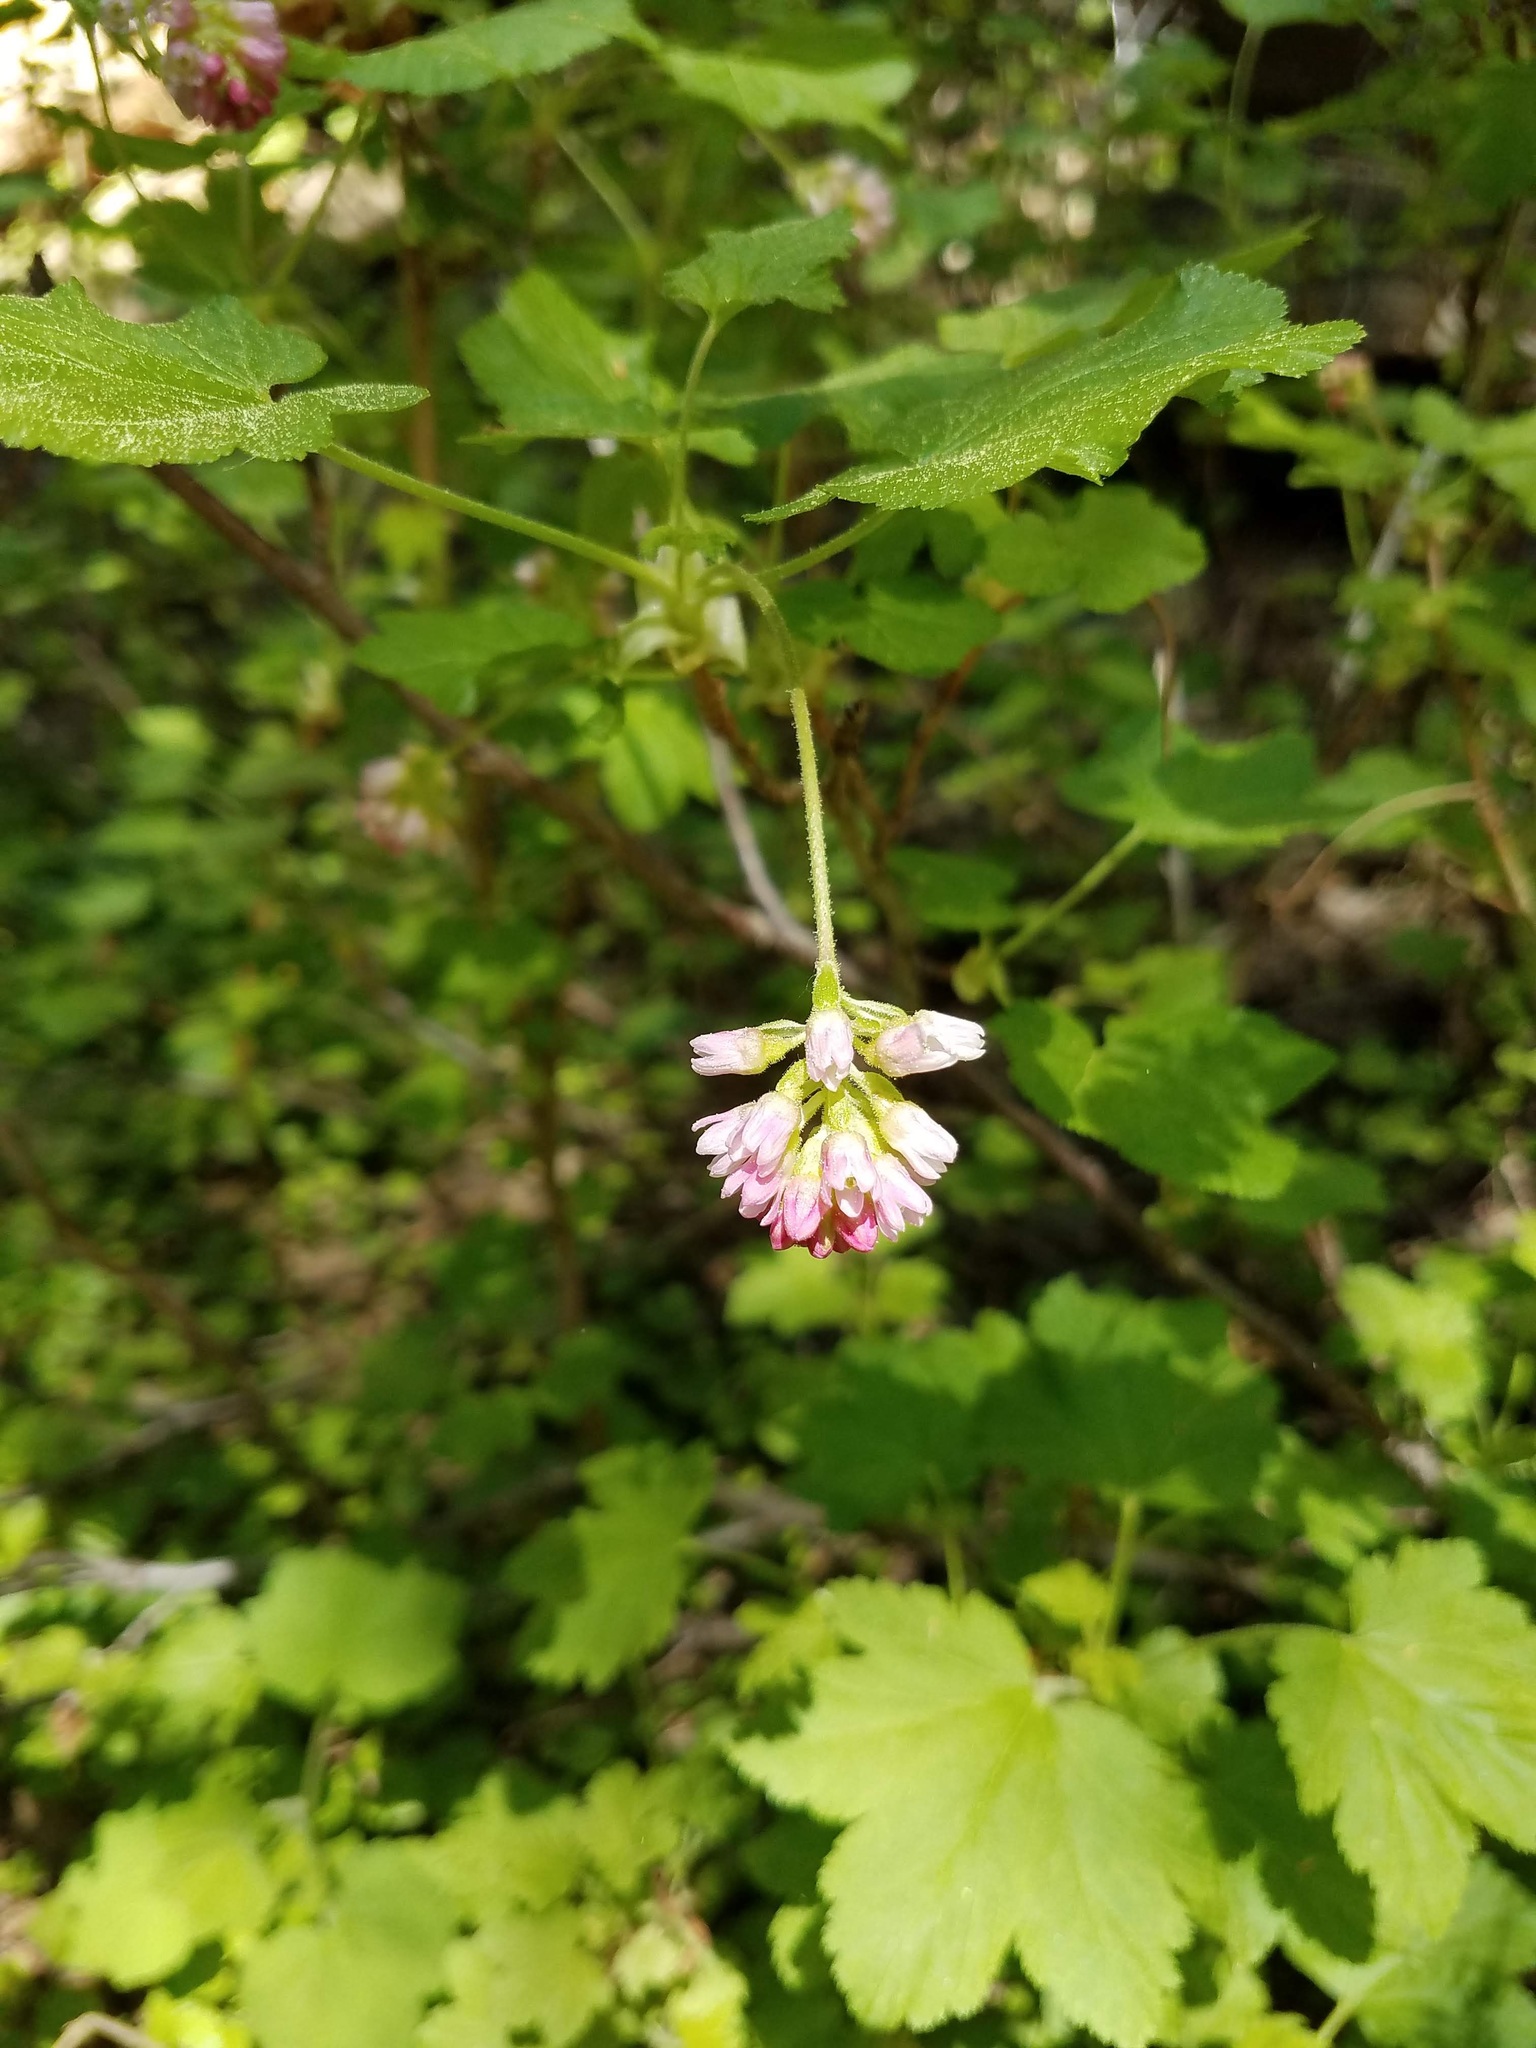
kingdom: Plantae
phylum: Tracheophyta
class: Magnoliopsida
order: Saxifragales
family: Grossulariaceae
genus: Ribes
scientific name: Ribes nevadense
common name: Mountain pink currant
